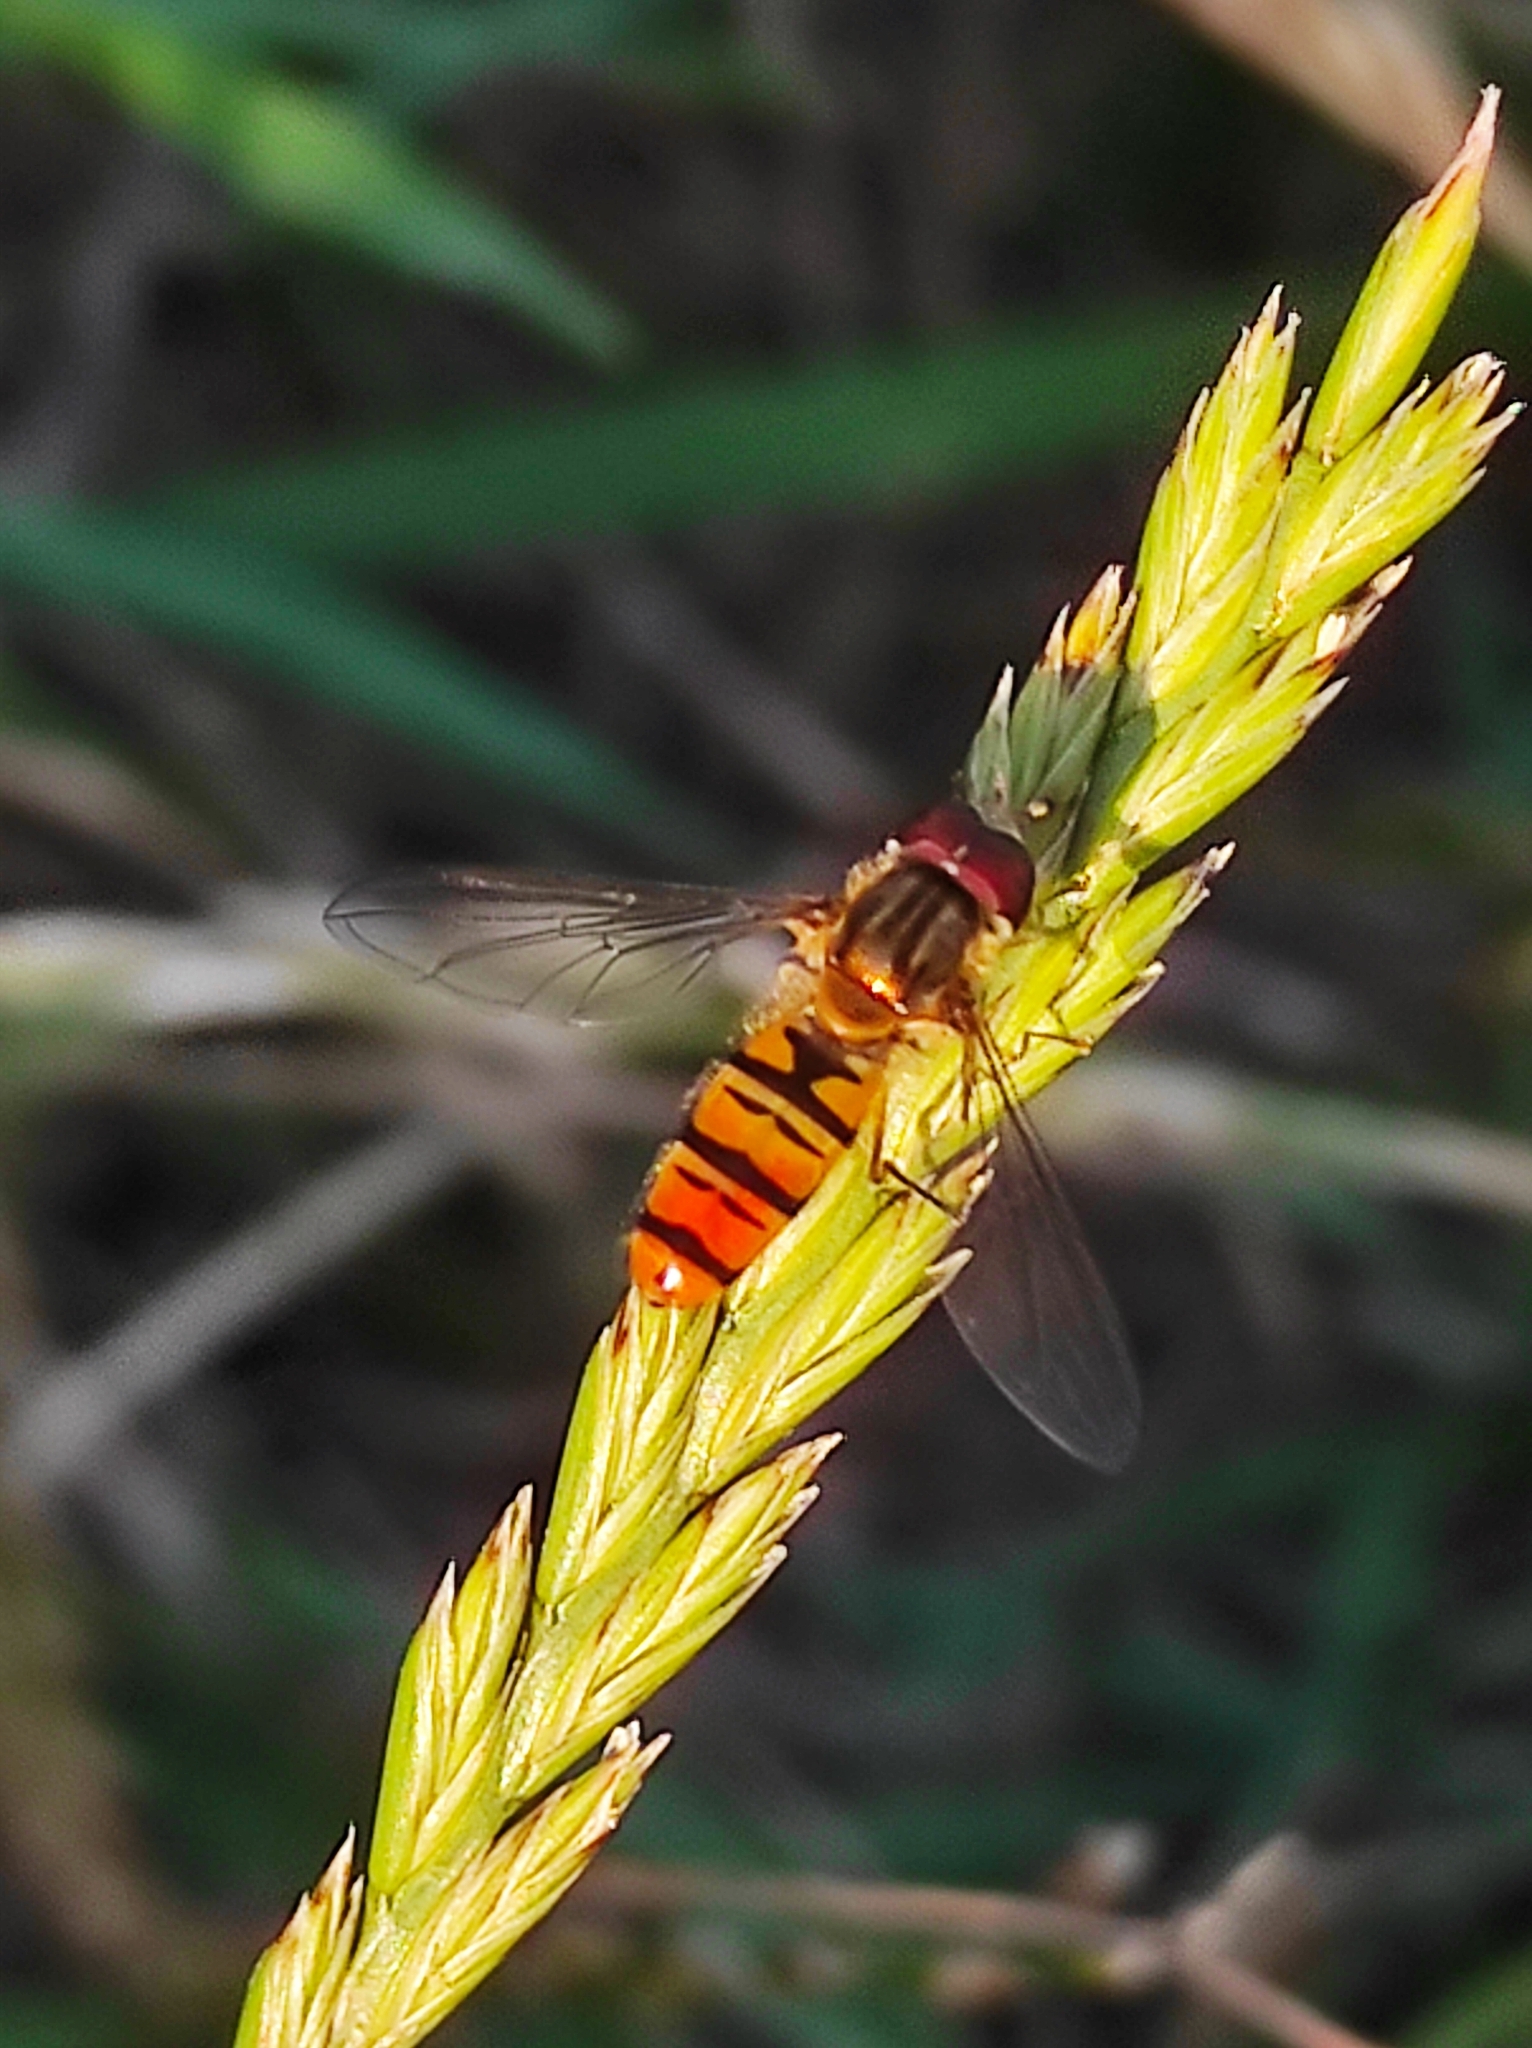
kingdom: Animalia
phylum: Arthropoda
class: Insecta
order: Diptera
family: Syrphidae
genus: Episyrphus
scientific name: Episyrphus balteatus
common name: Marmalade hoverfly
